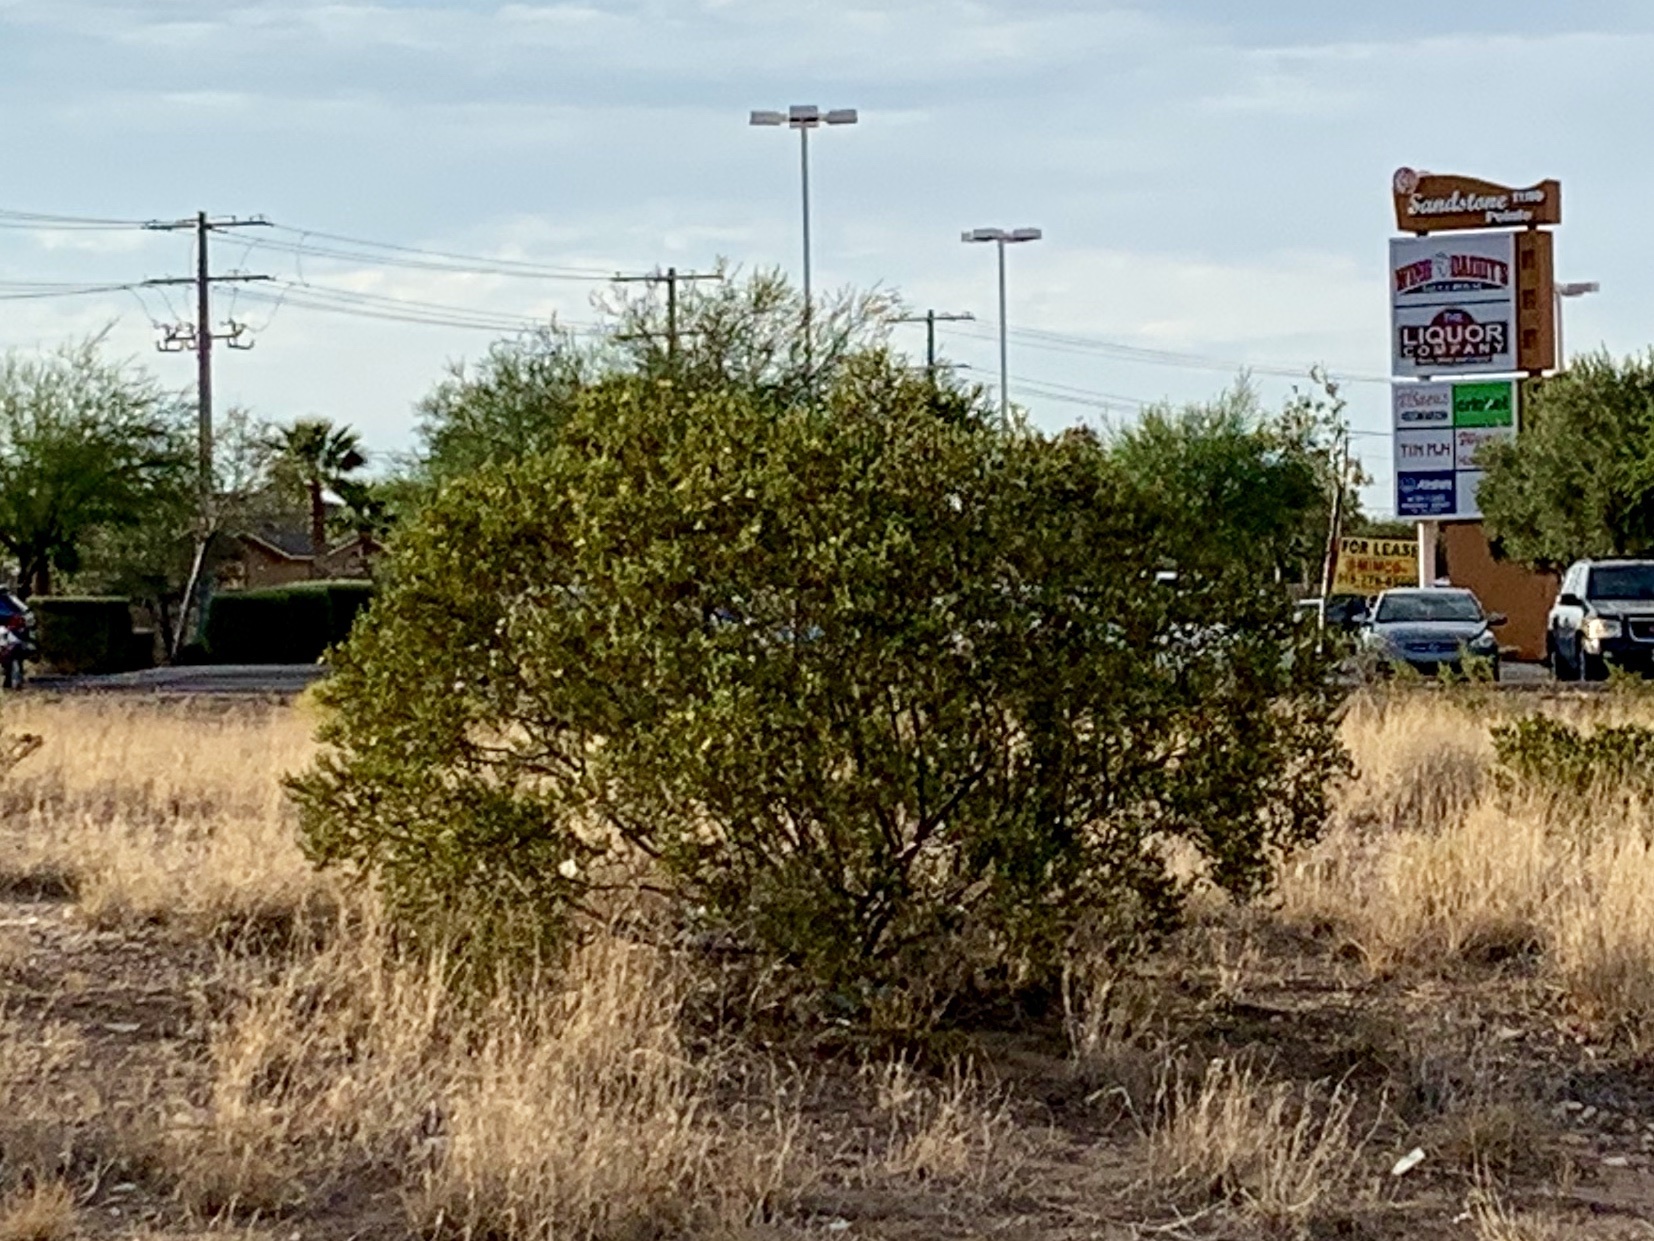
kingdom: Plantae
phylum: Tracheophyta
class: Magnoliopsida
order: Zygophyllales
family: Zygophyllaceae
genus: Larrea
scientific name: Larrea tridentata
